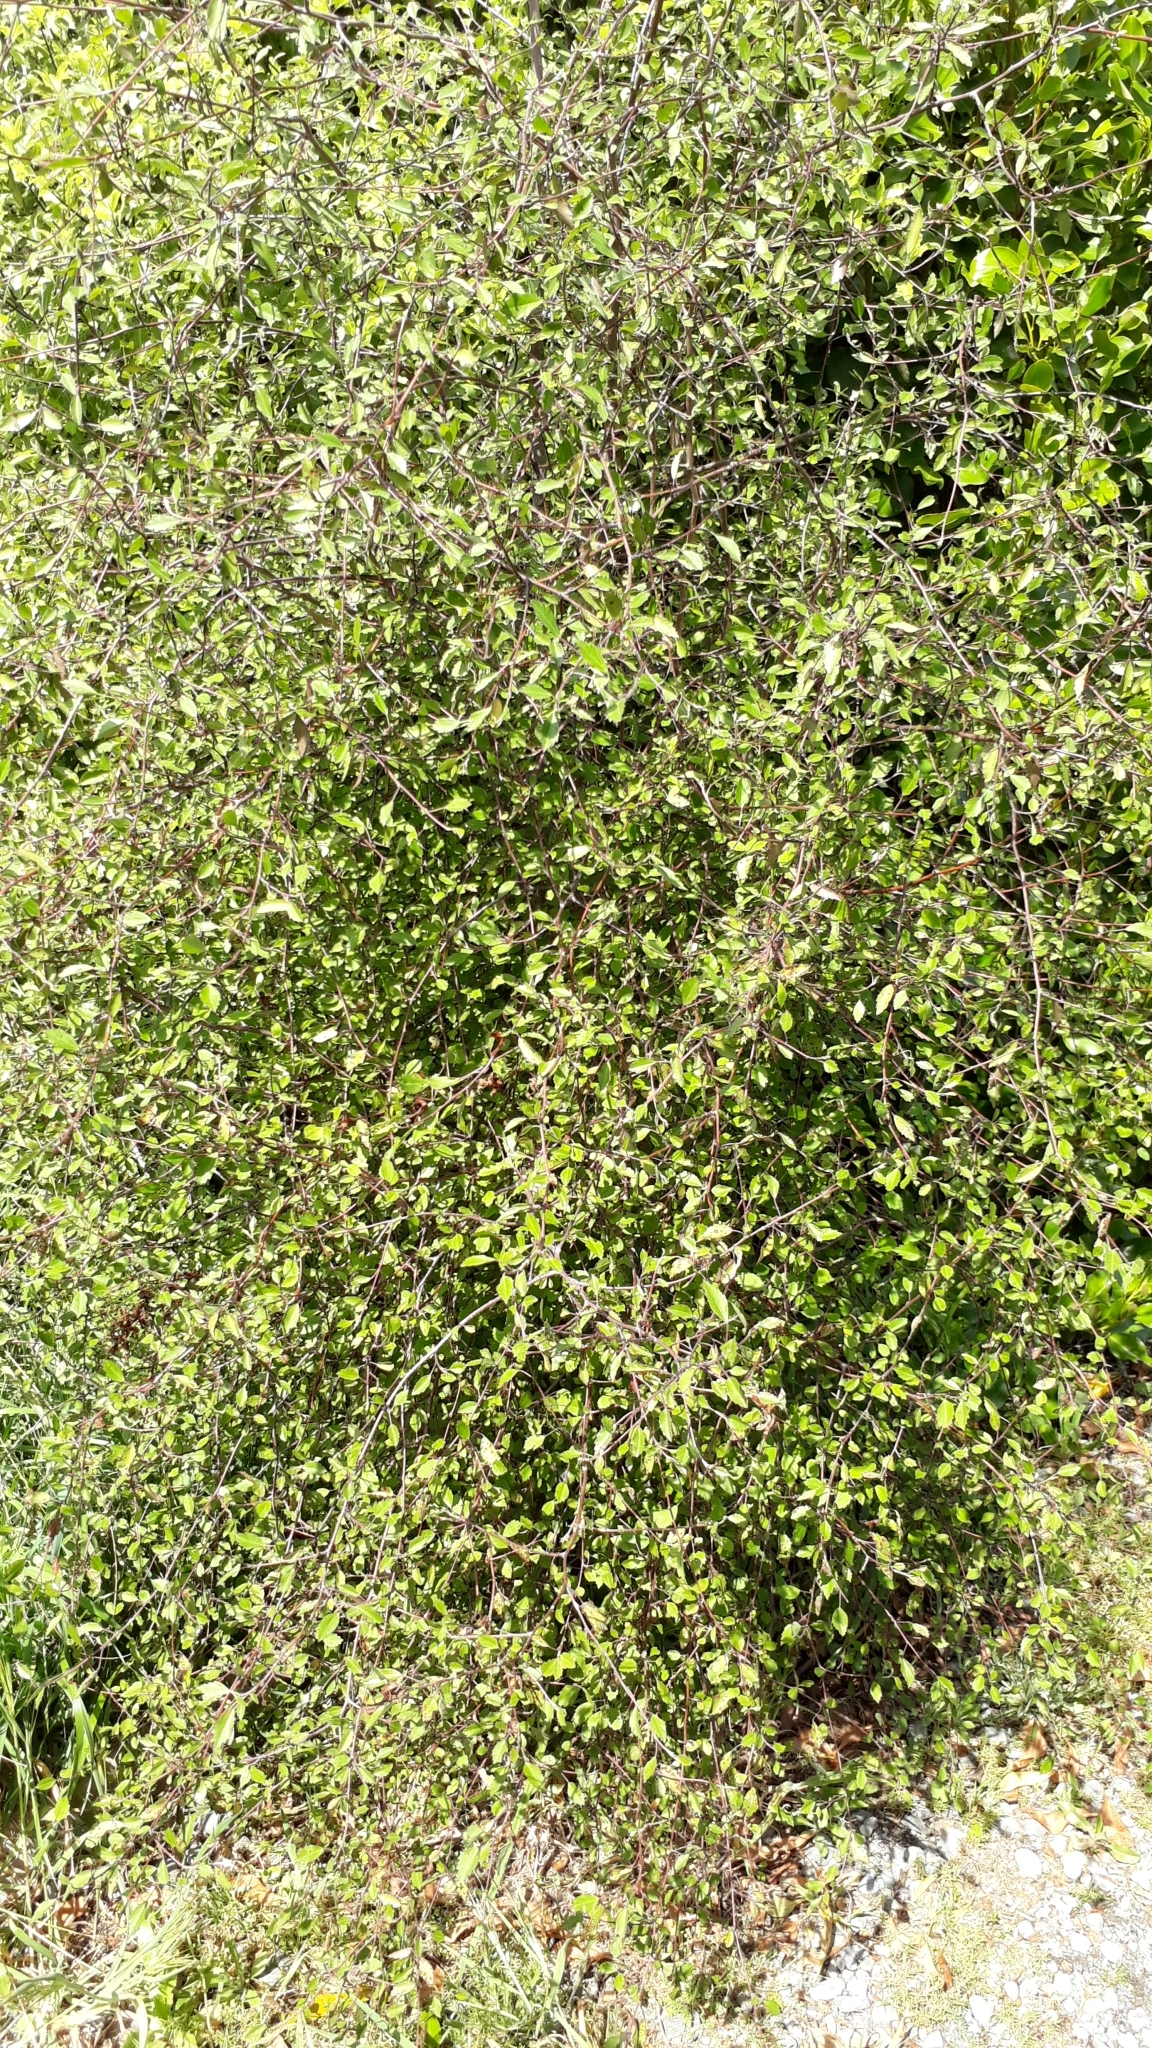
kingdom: Plantae
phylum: Tracheophyta
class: Magnoliopsida
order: Malvales
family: Malvaceae
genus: Plagianthus
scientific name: Plagianthus cymosus
